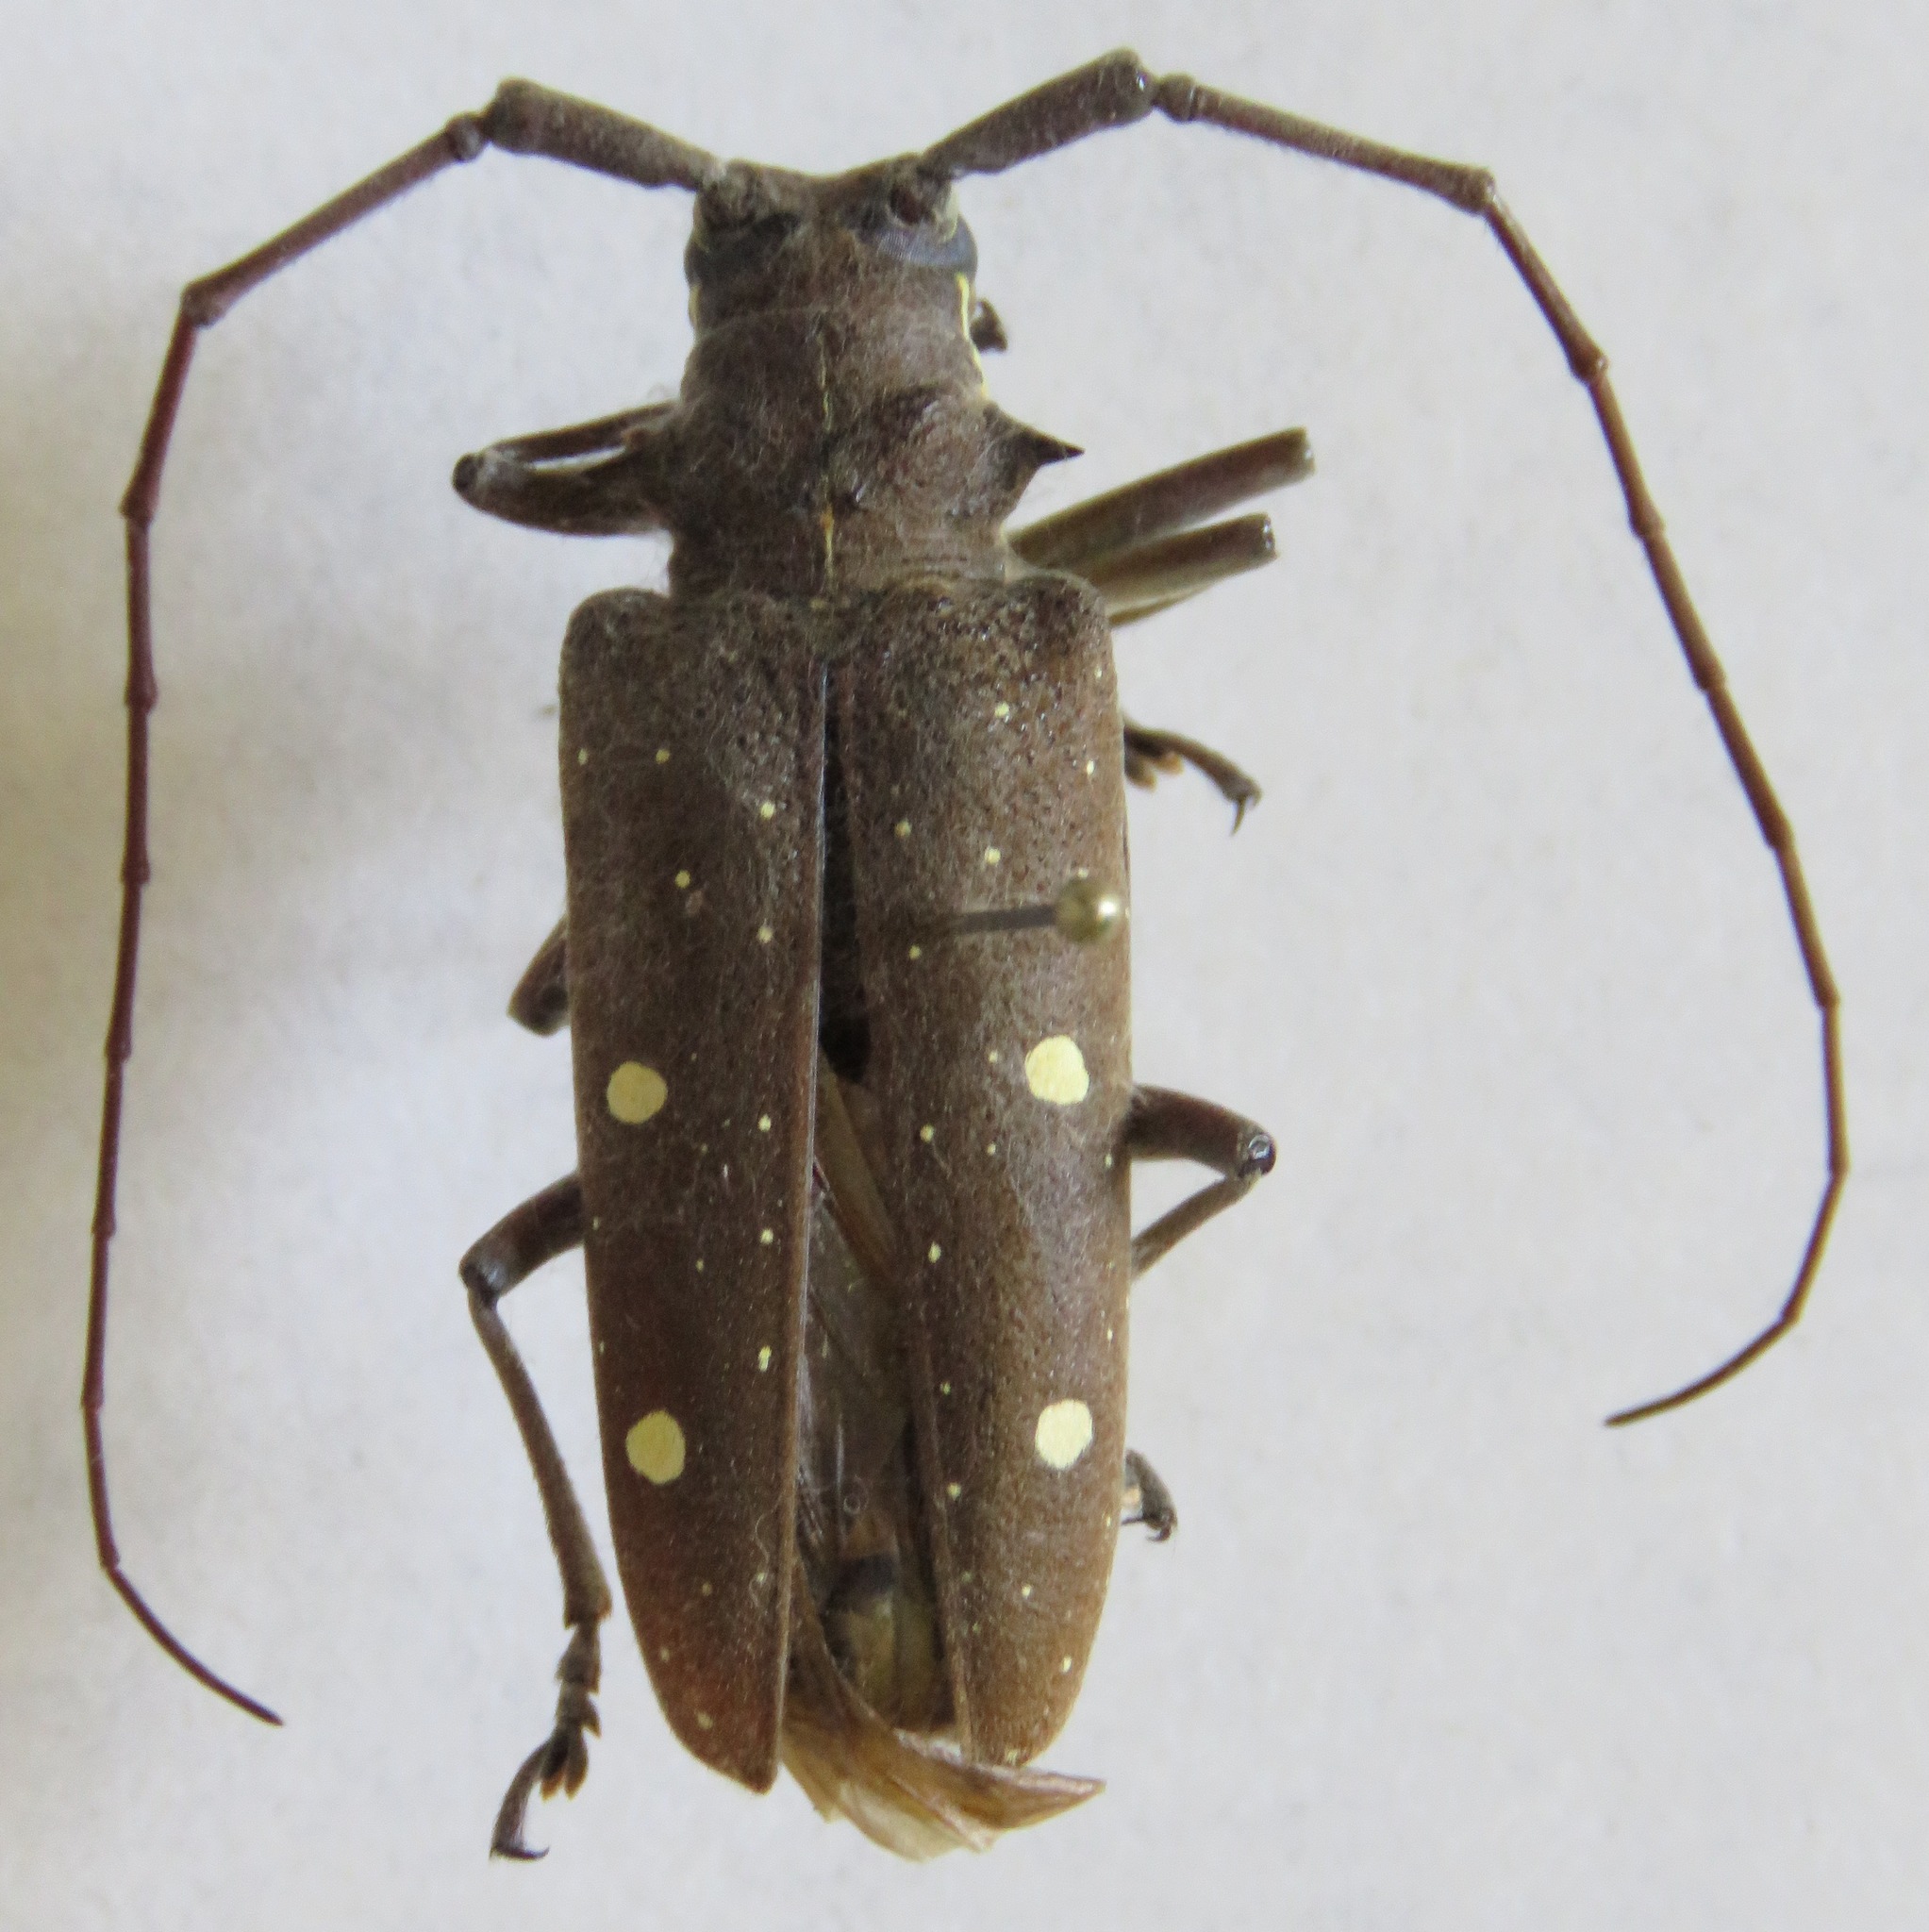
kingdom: Animalia
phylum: Arthropoda
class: Insecta
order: Coleoptera
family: Cerambycidae
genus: Taeniotes
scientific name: Taeniotes xanthostictus
